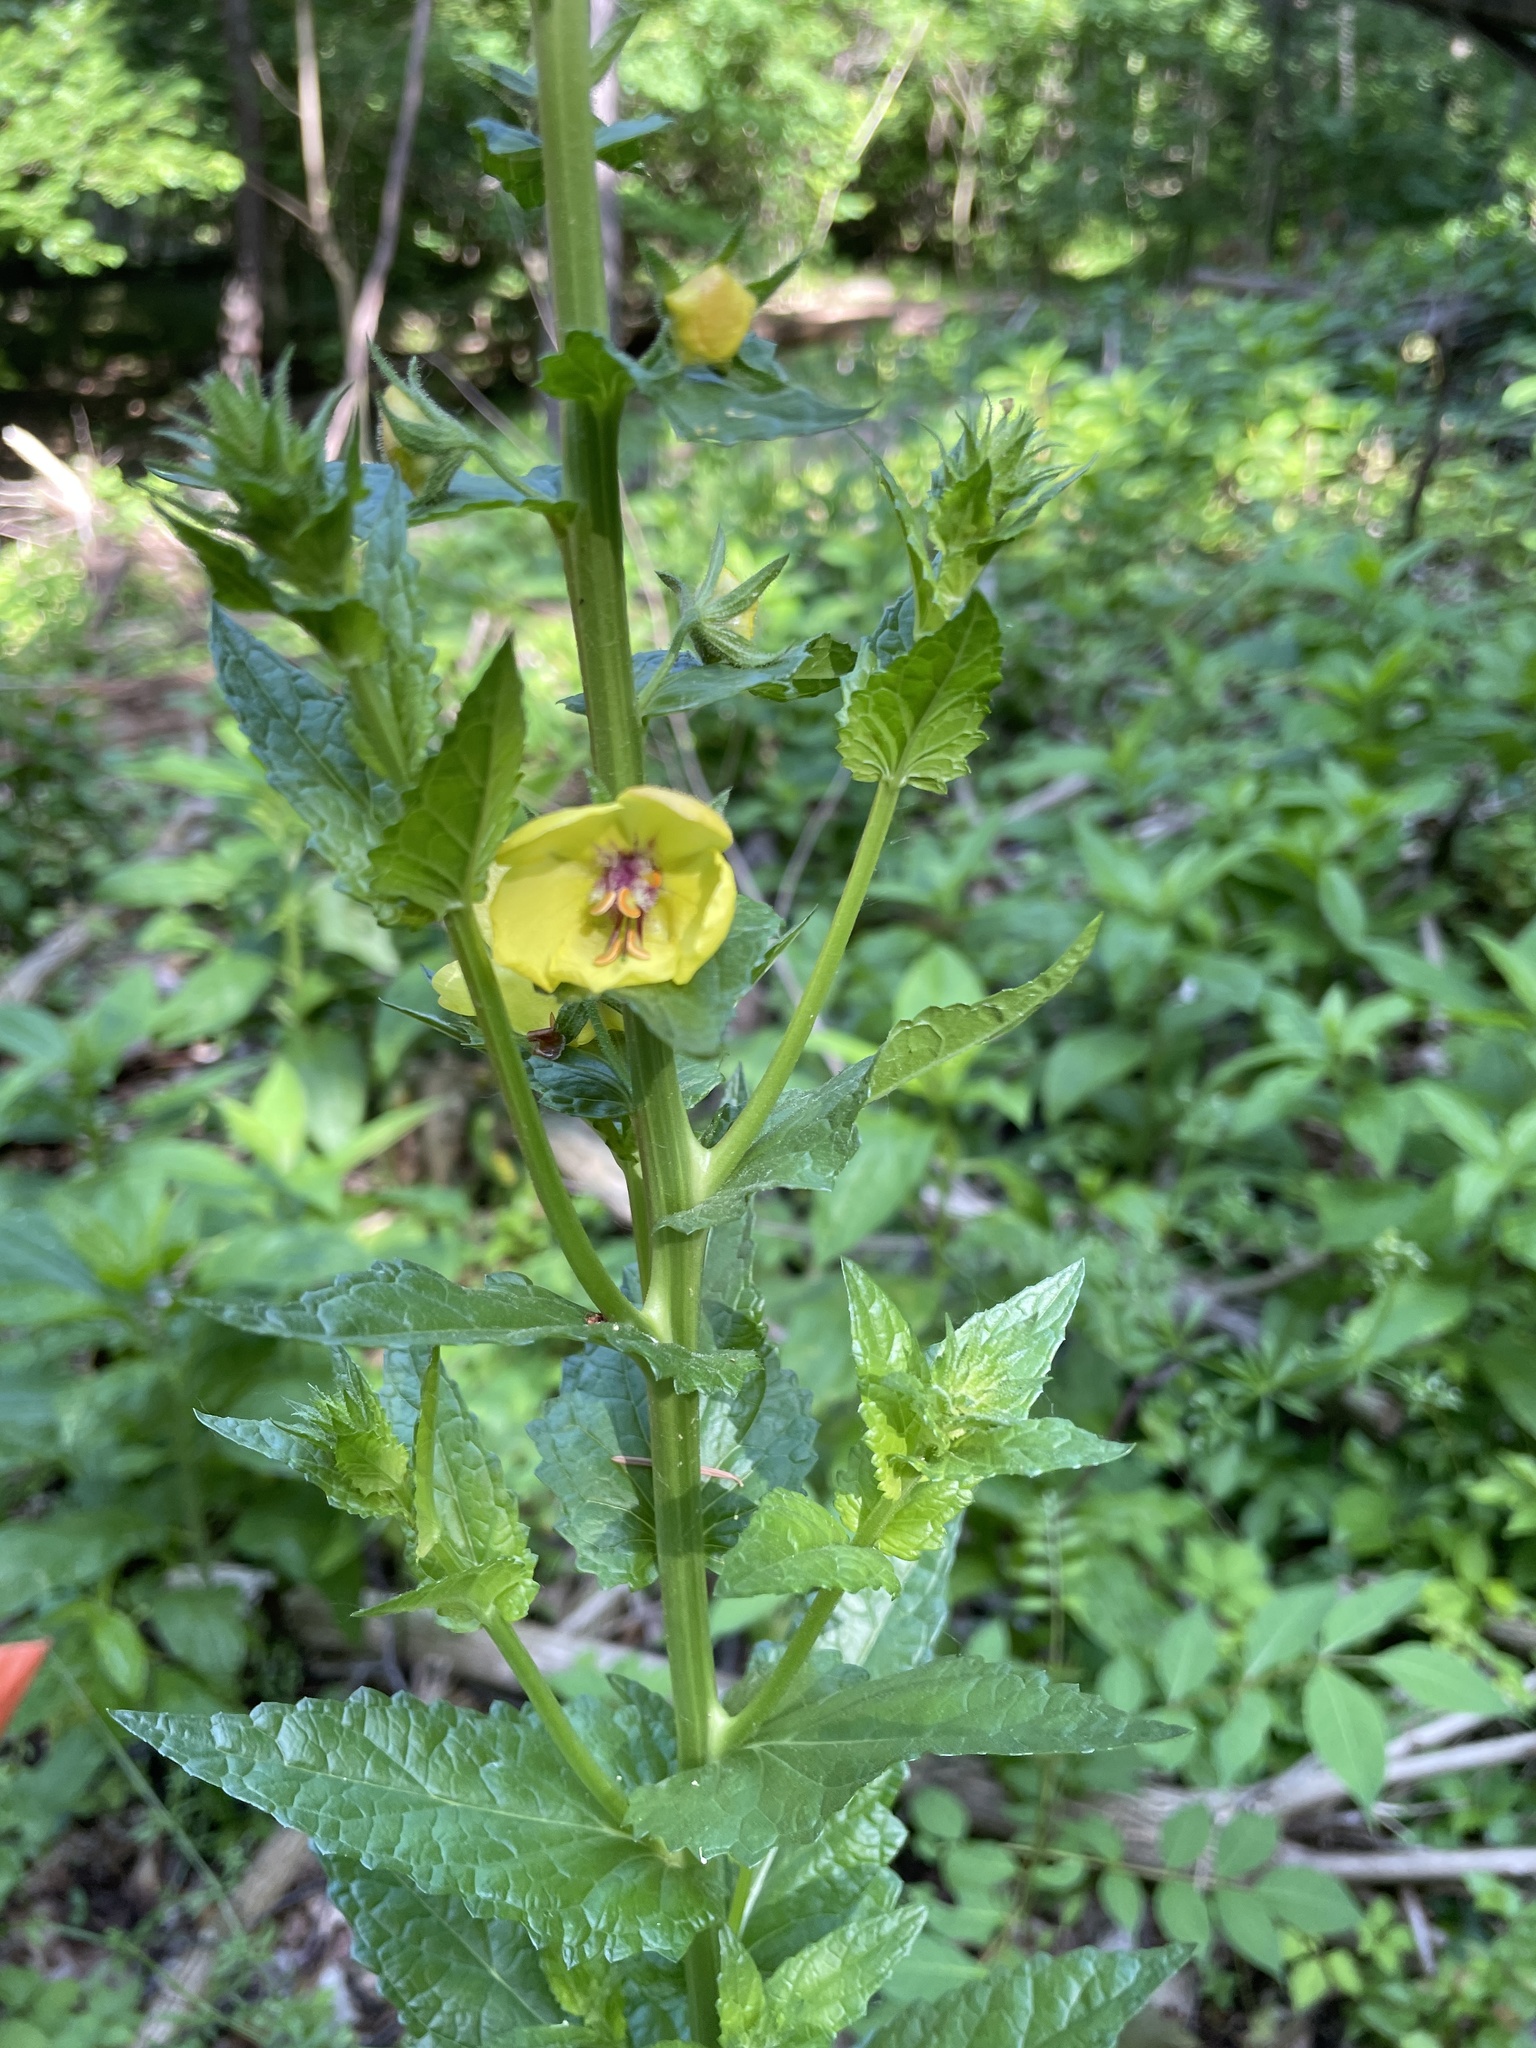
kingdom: Plantae
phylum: Tracheophyta
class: Magnoliopsida
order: Lamiales
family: Scrophulariaceae
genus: Verbascum
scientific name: Verbascum blattaria
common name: Moth mullein
